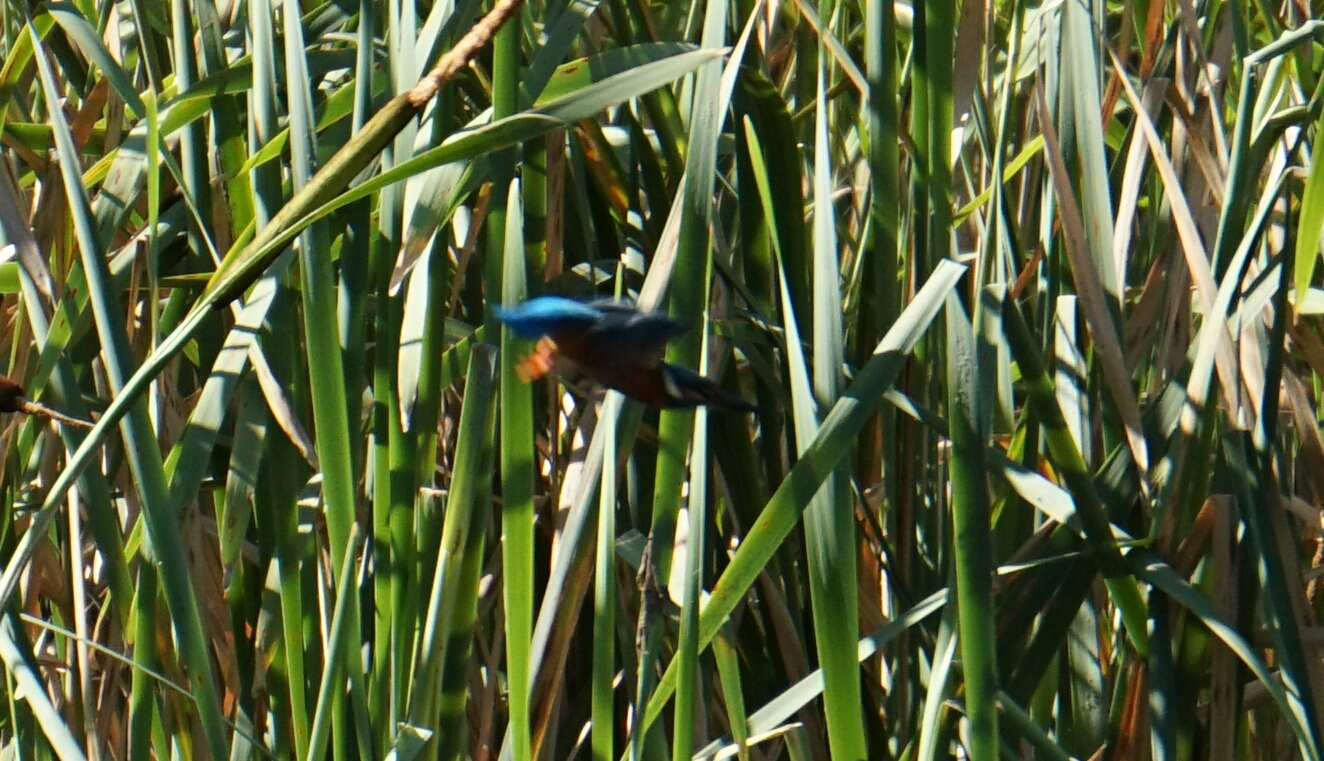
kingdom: Animalia
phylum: Chordata
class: Aves
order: Coraciiformes
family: Alcedinidae
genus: Alcedo
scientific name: Alcedo atthis
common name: Common kingfisher
